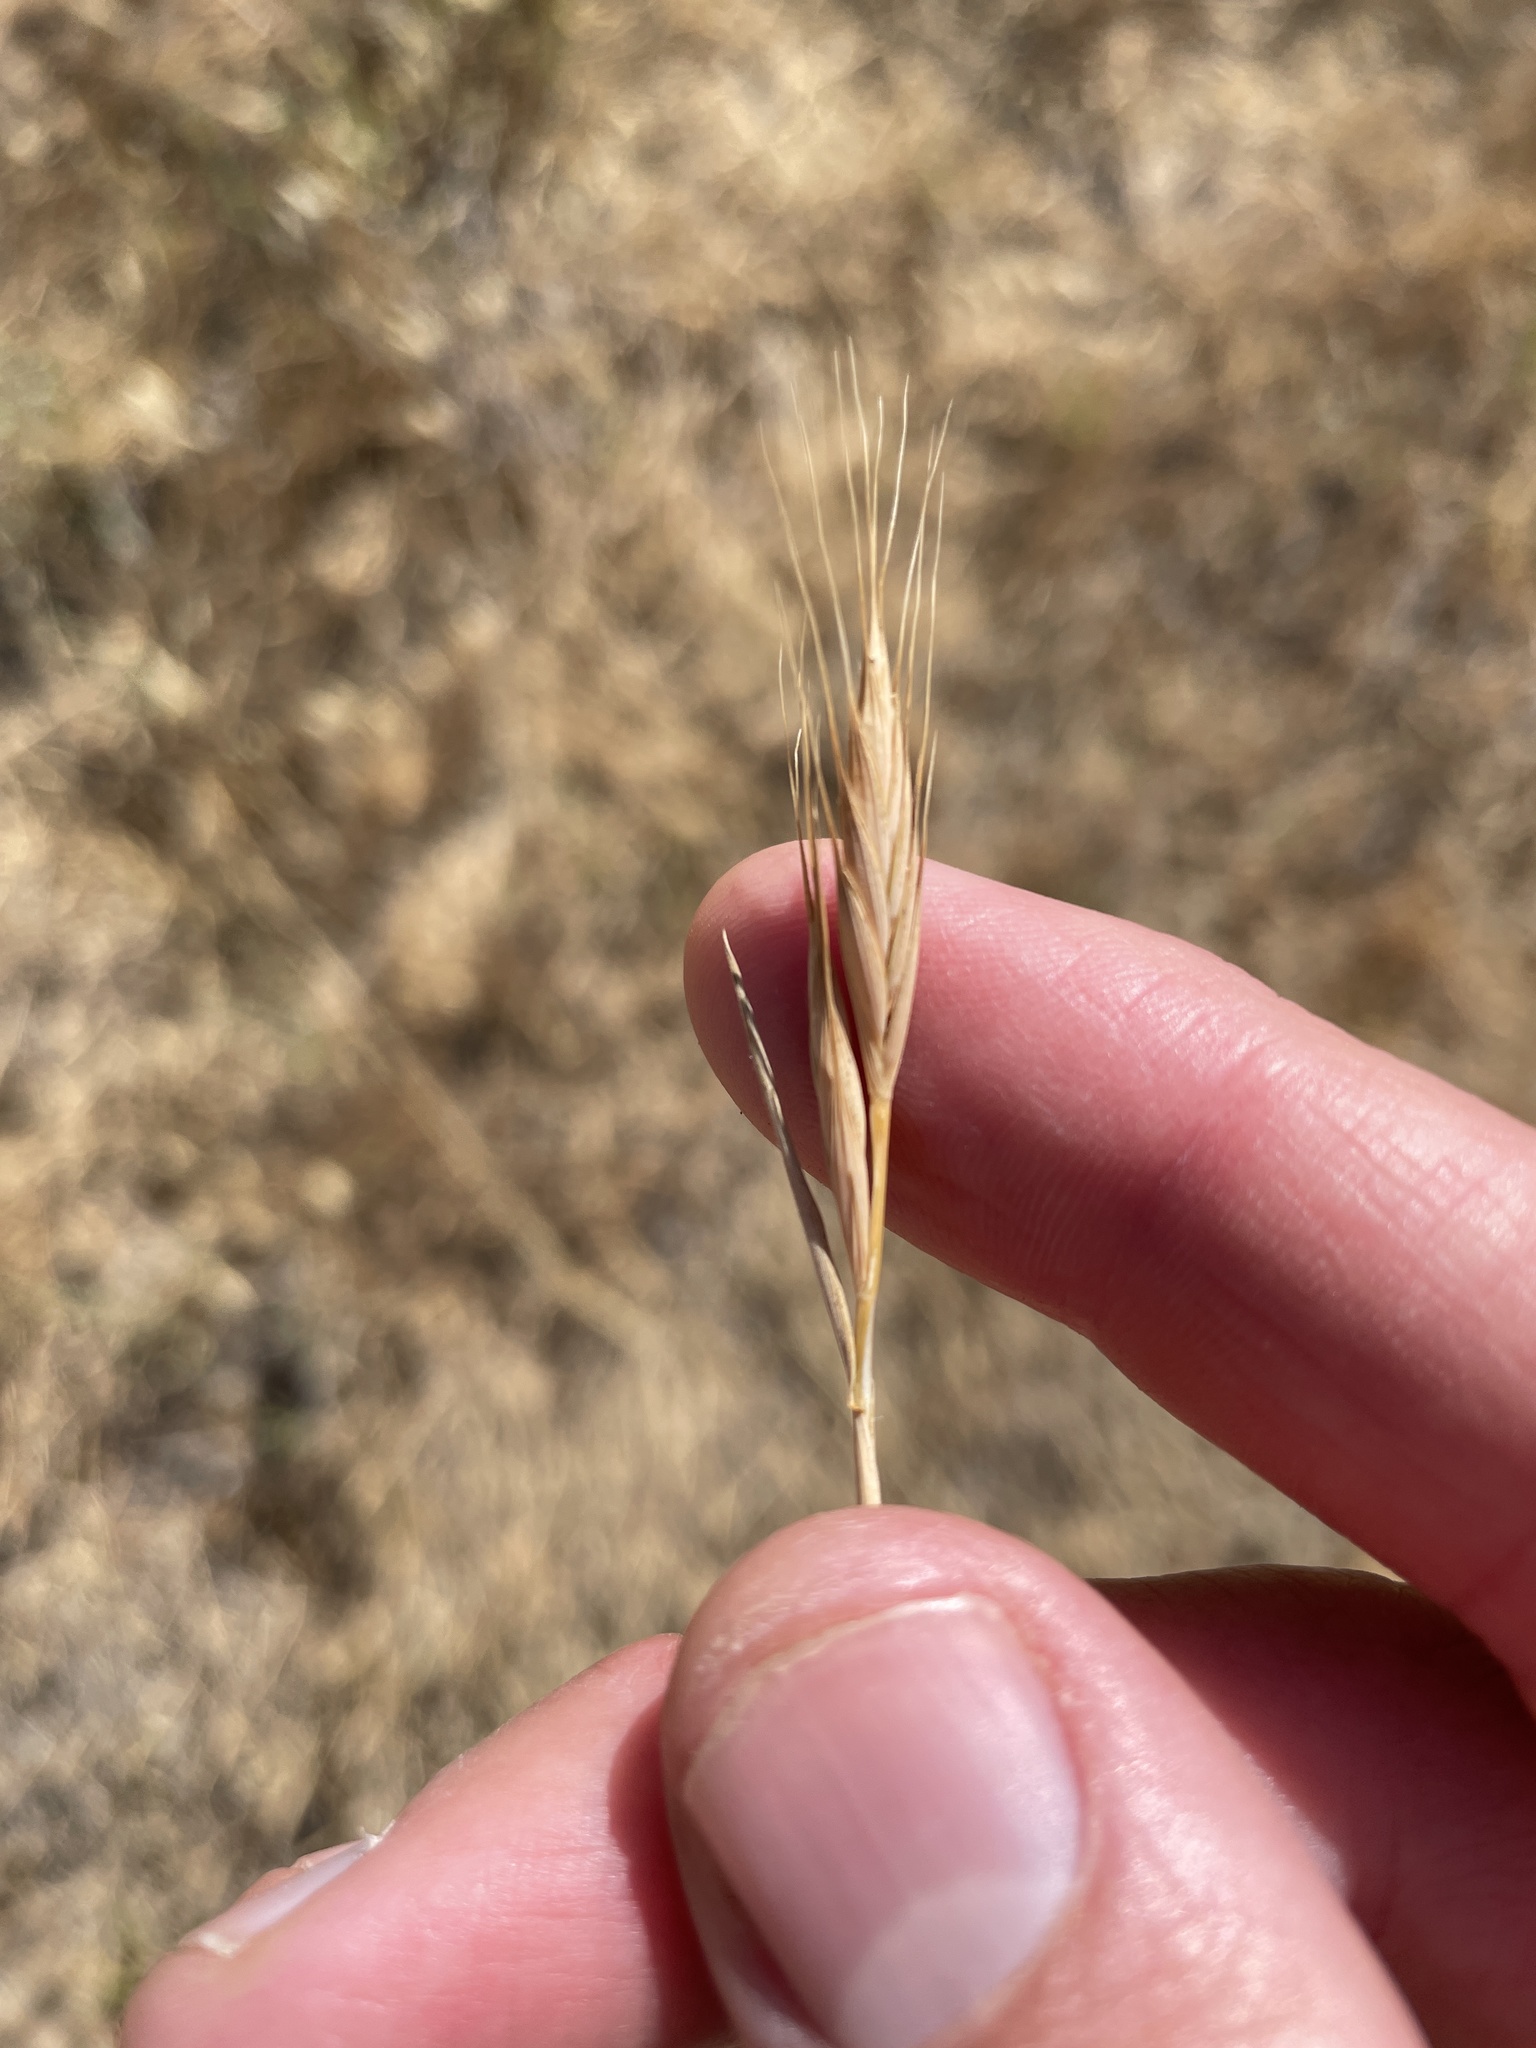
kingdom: Plantae
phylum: Tracheophyta
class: Liliopsida
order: Poales
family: Poaceae
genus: Brachypodium
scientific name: Brachypodium distachyon
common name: Stiff brome
